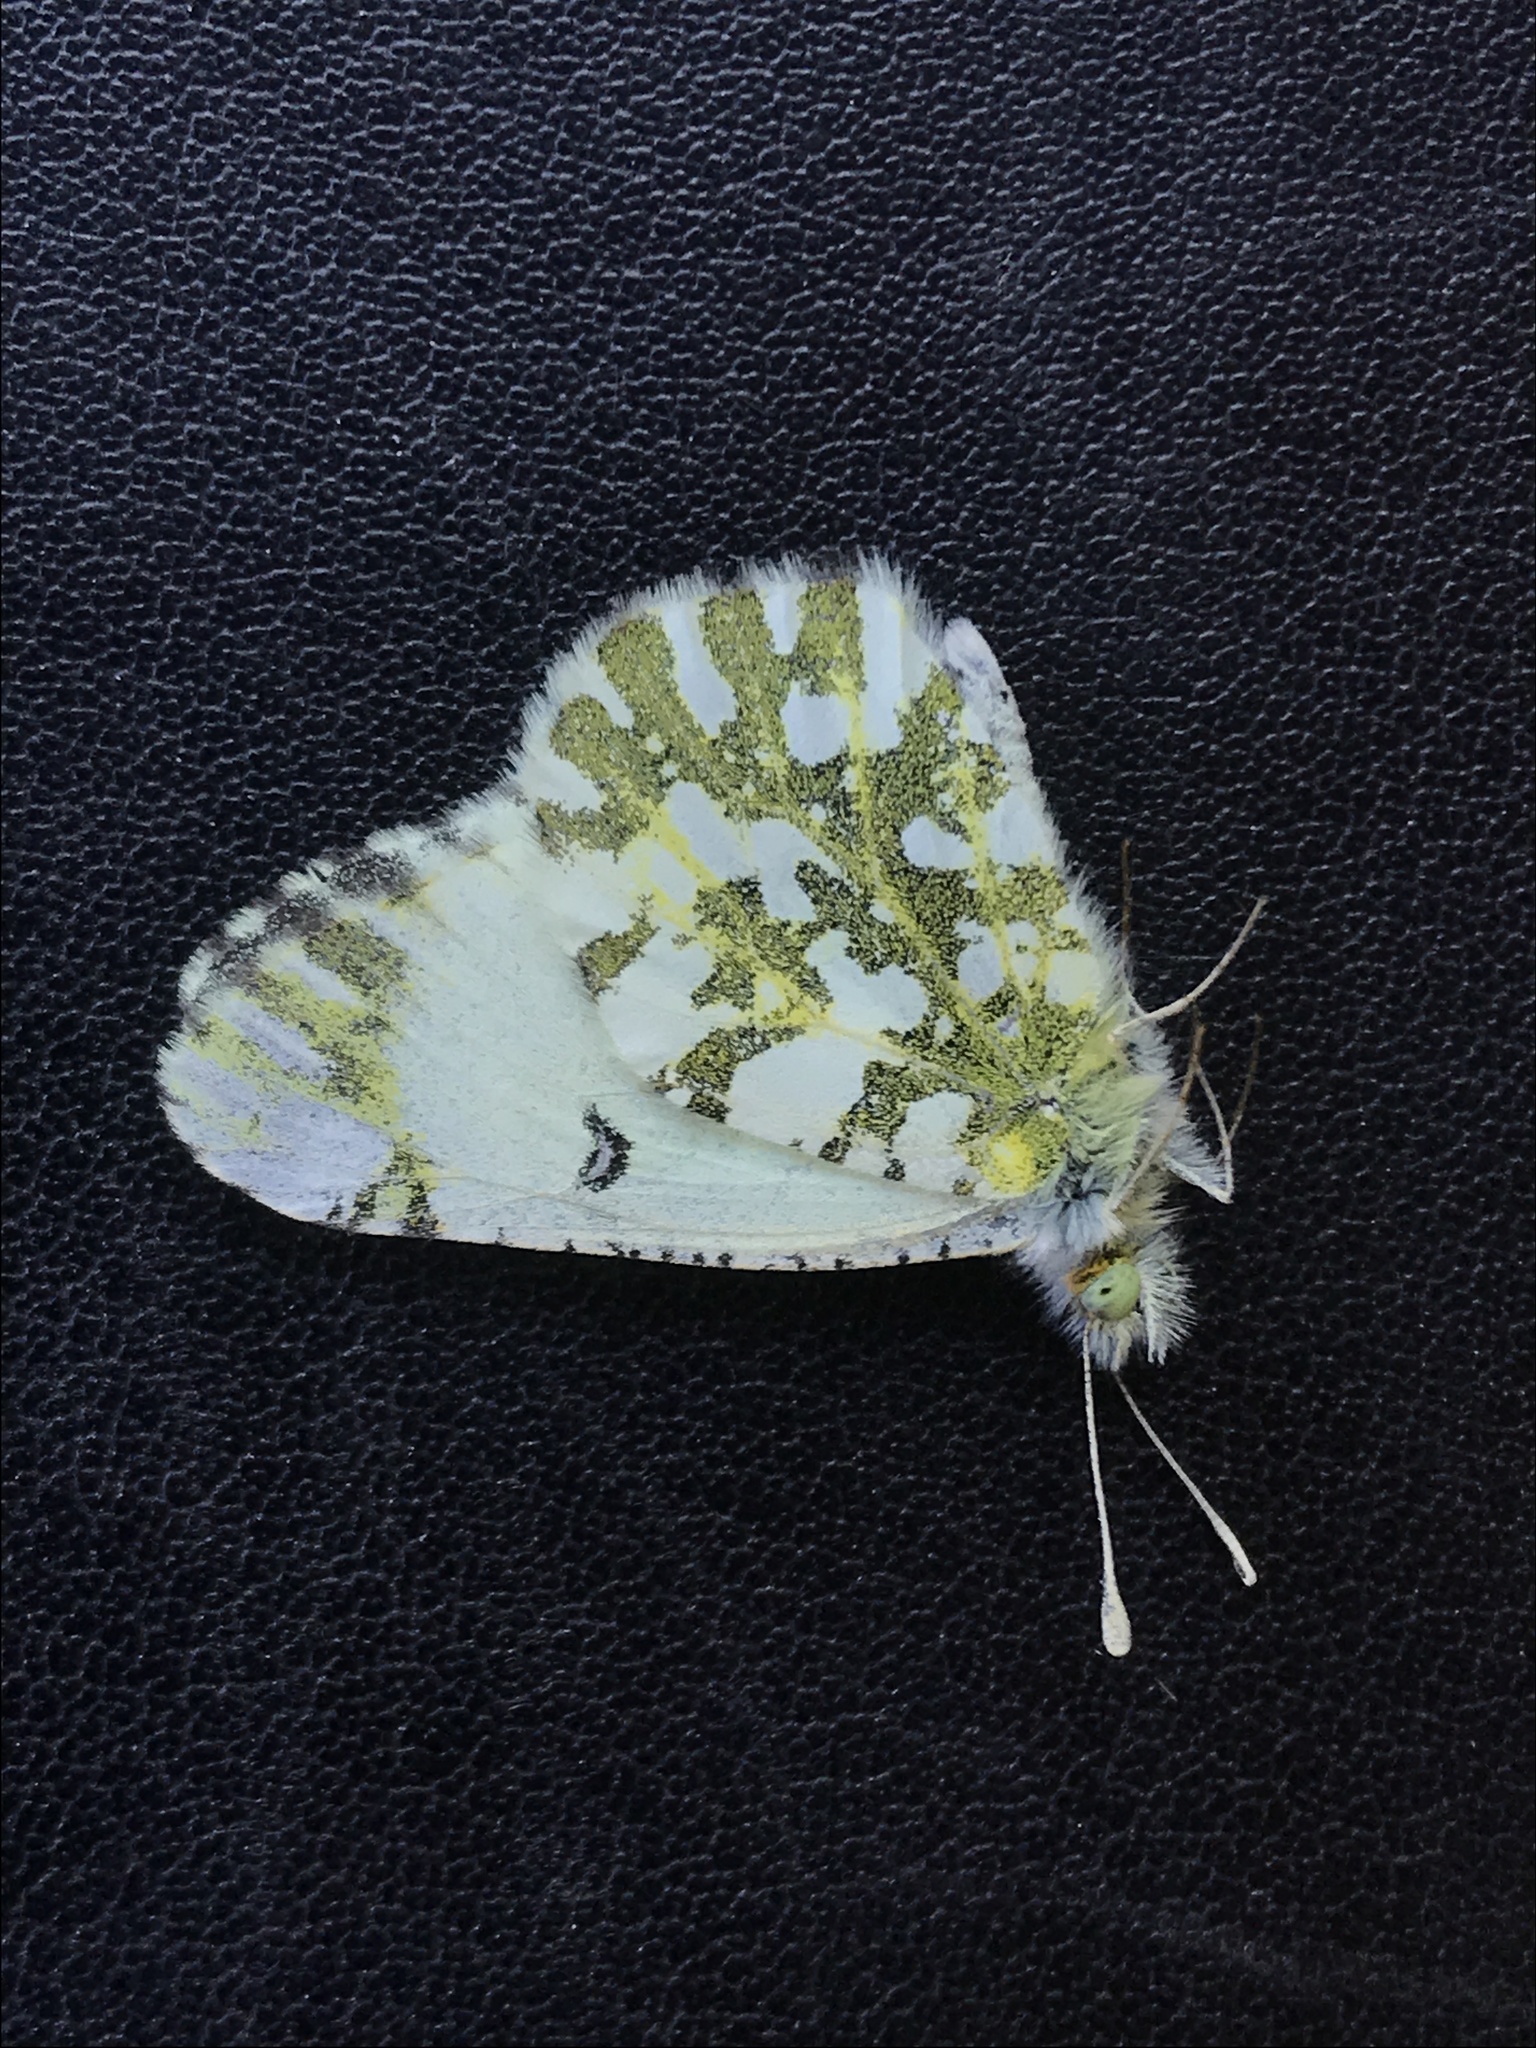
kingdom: Animalia
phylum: Arthropoda
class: Insecta
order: Lepidoptera
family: Pieridae
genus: Euchloe
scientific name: Euchloe ausonides
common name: Creamy marblewing
